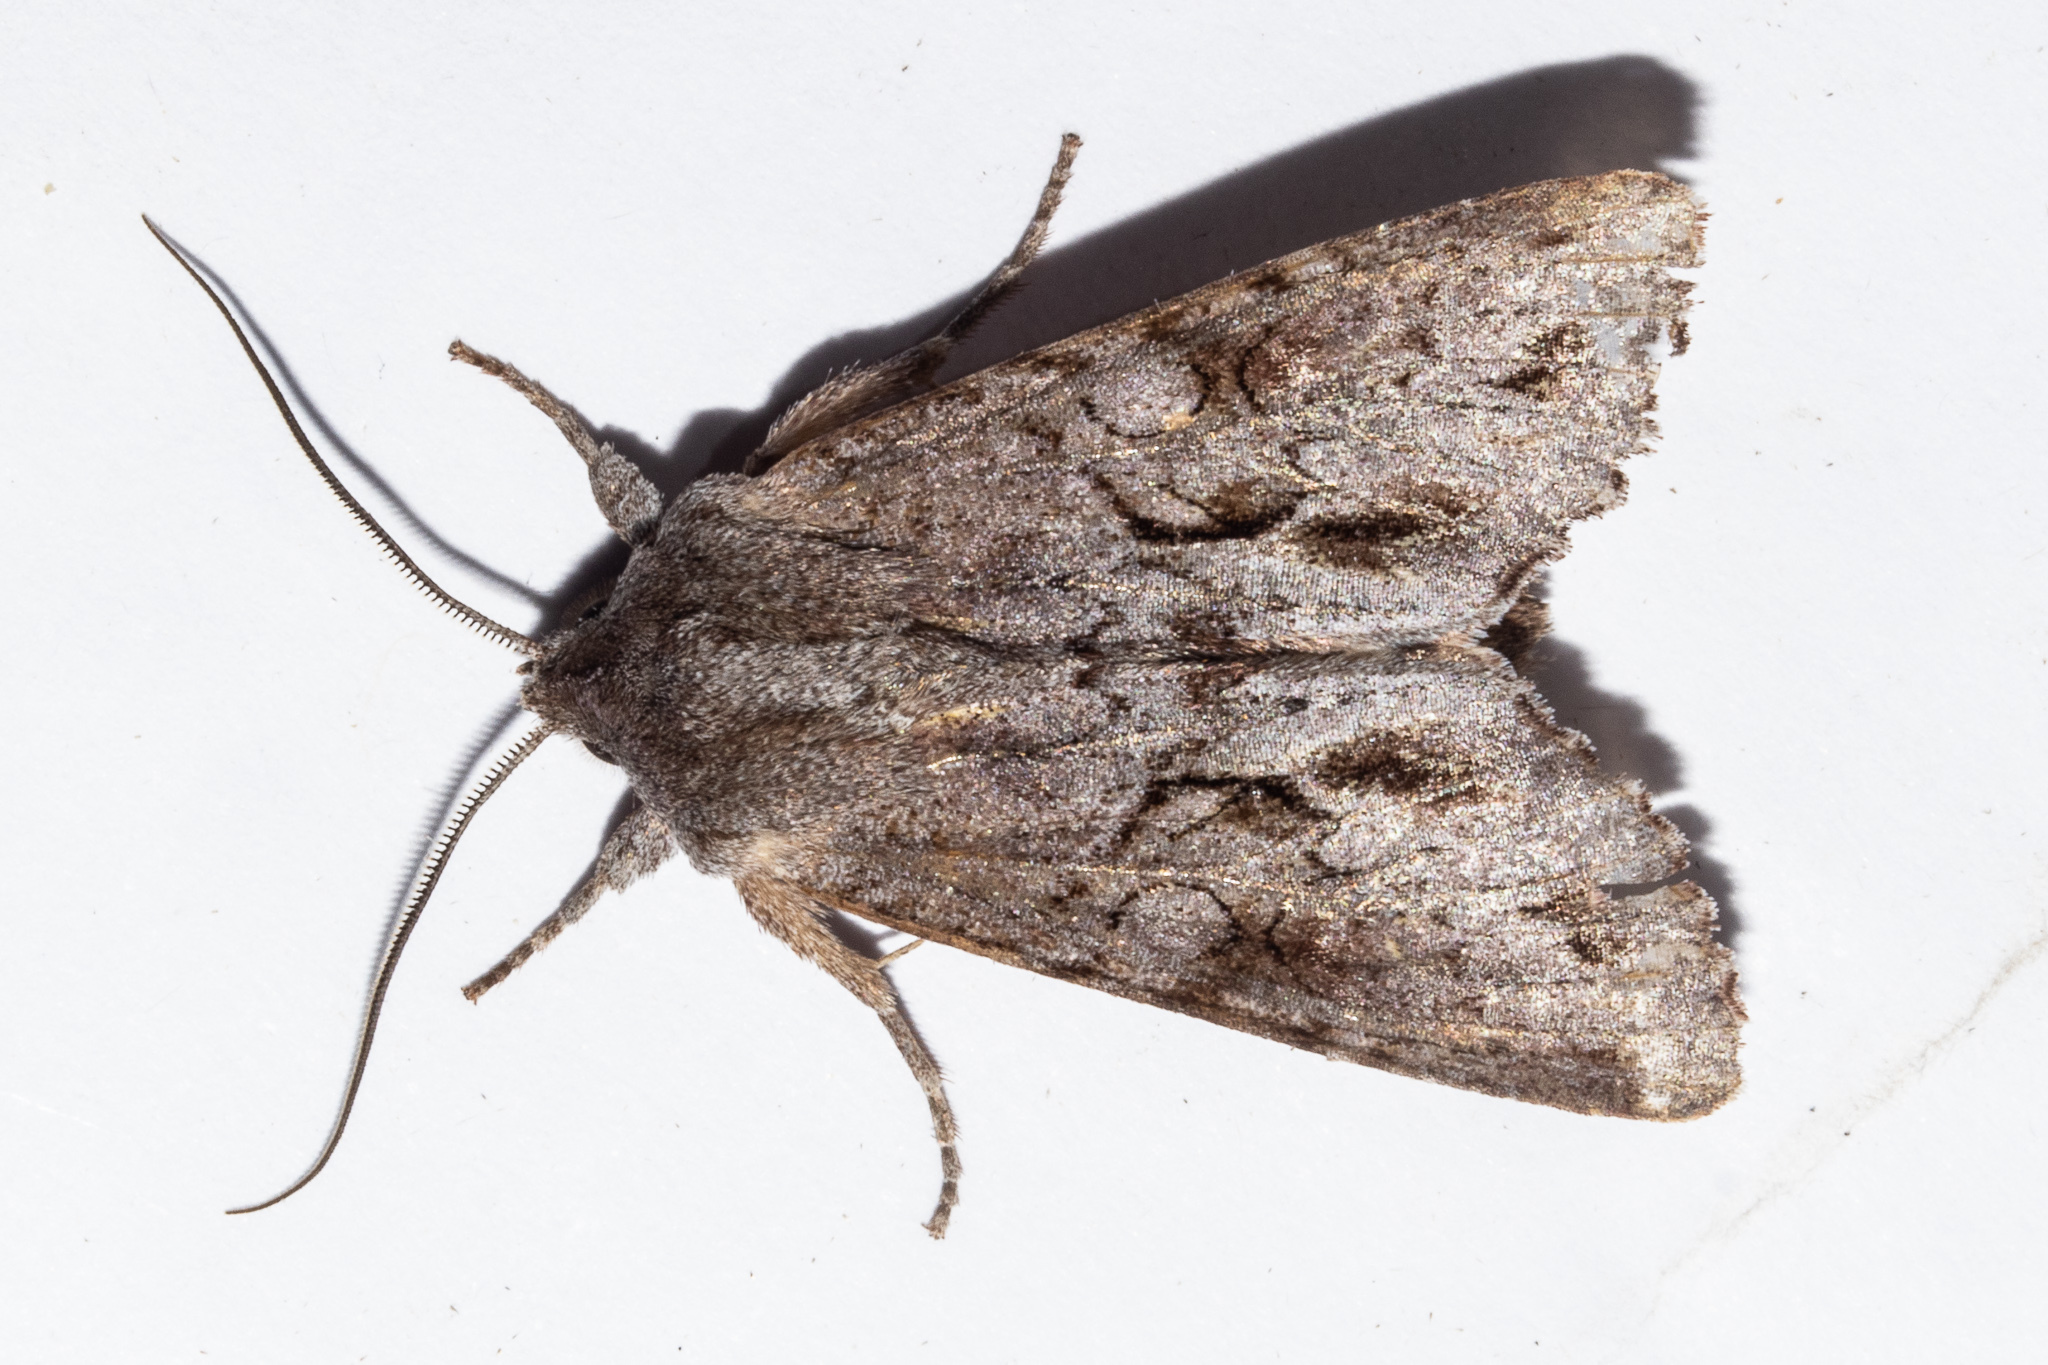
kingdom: Animalia
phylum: Arthropoda
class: Insecta
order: Lepidoptera
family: Noctuidae
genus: Ichneutica
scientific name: Ichneutica
